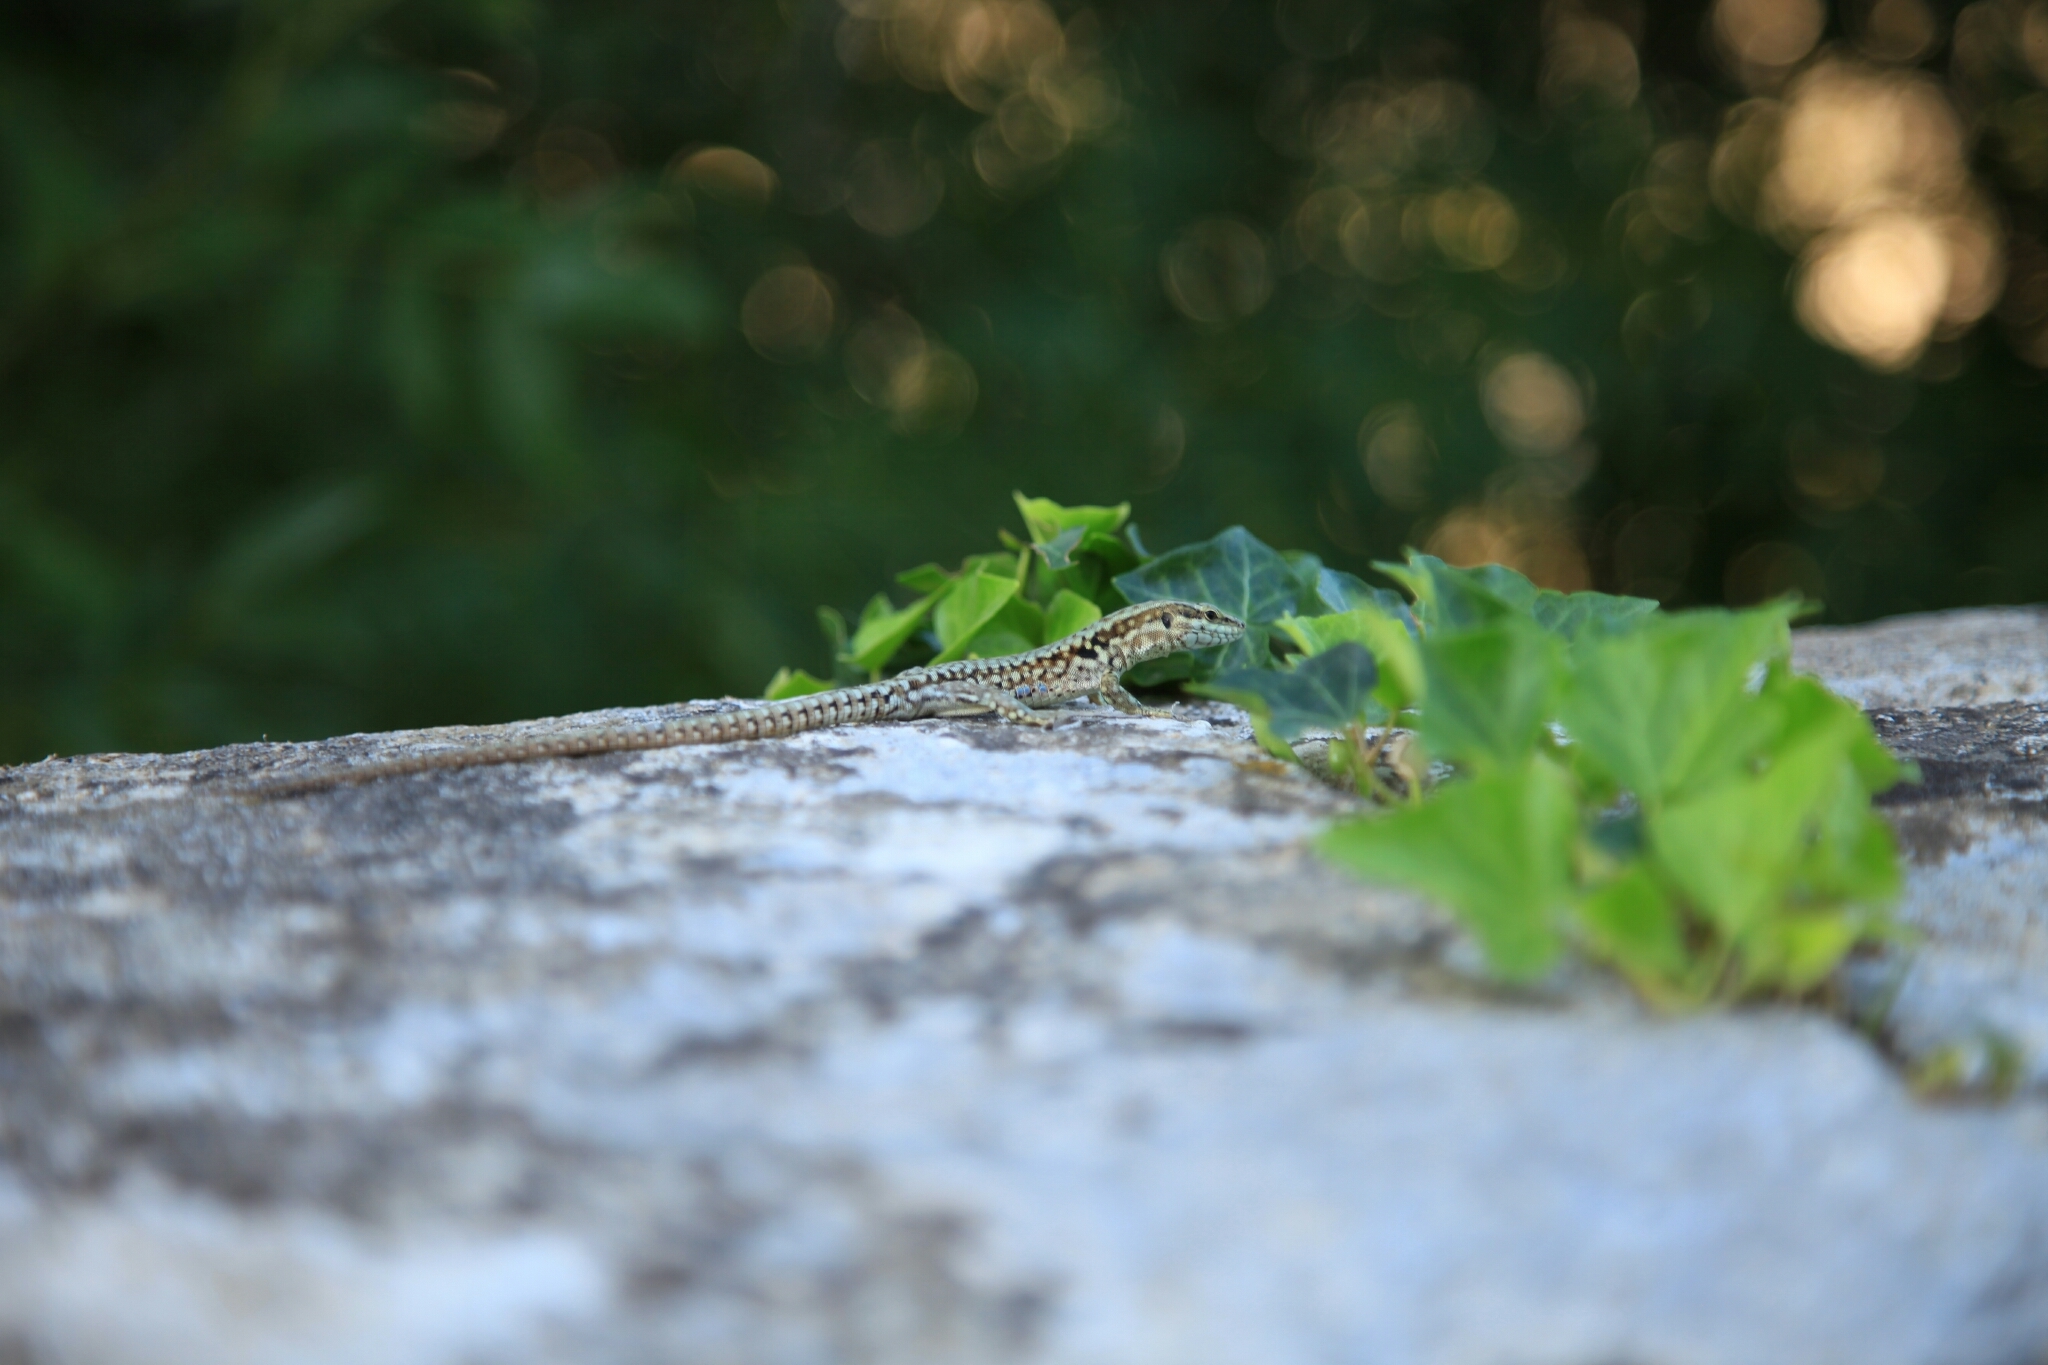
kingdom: Animalia
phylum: Chordata
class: Squamata
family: Lacertidae
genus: Podarcis
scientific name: Podarcis muralis
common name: Common wall lizard
